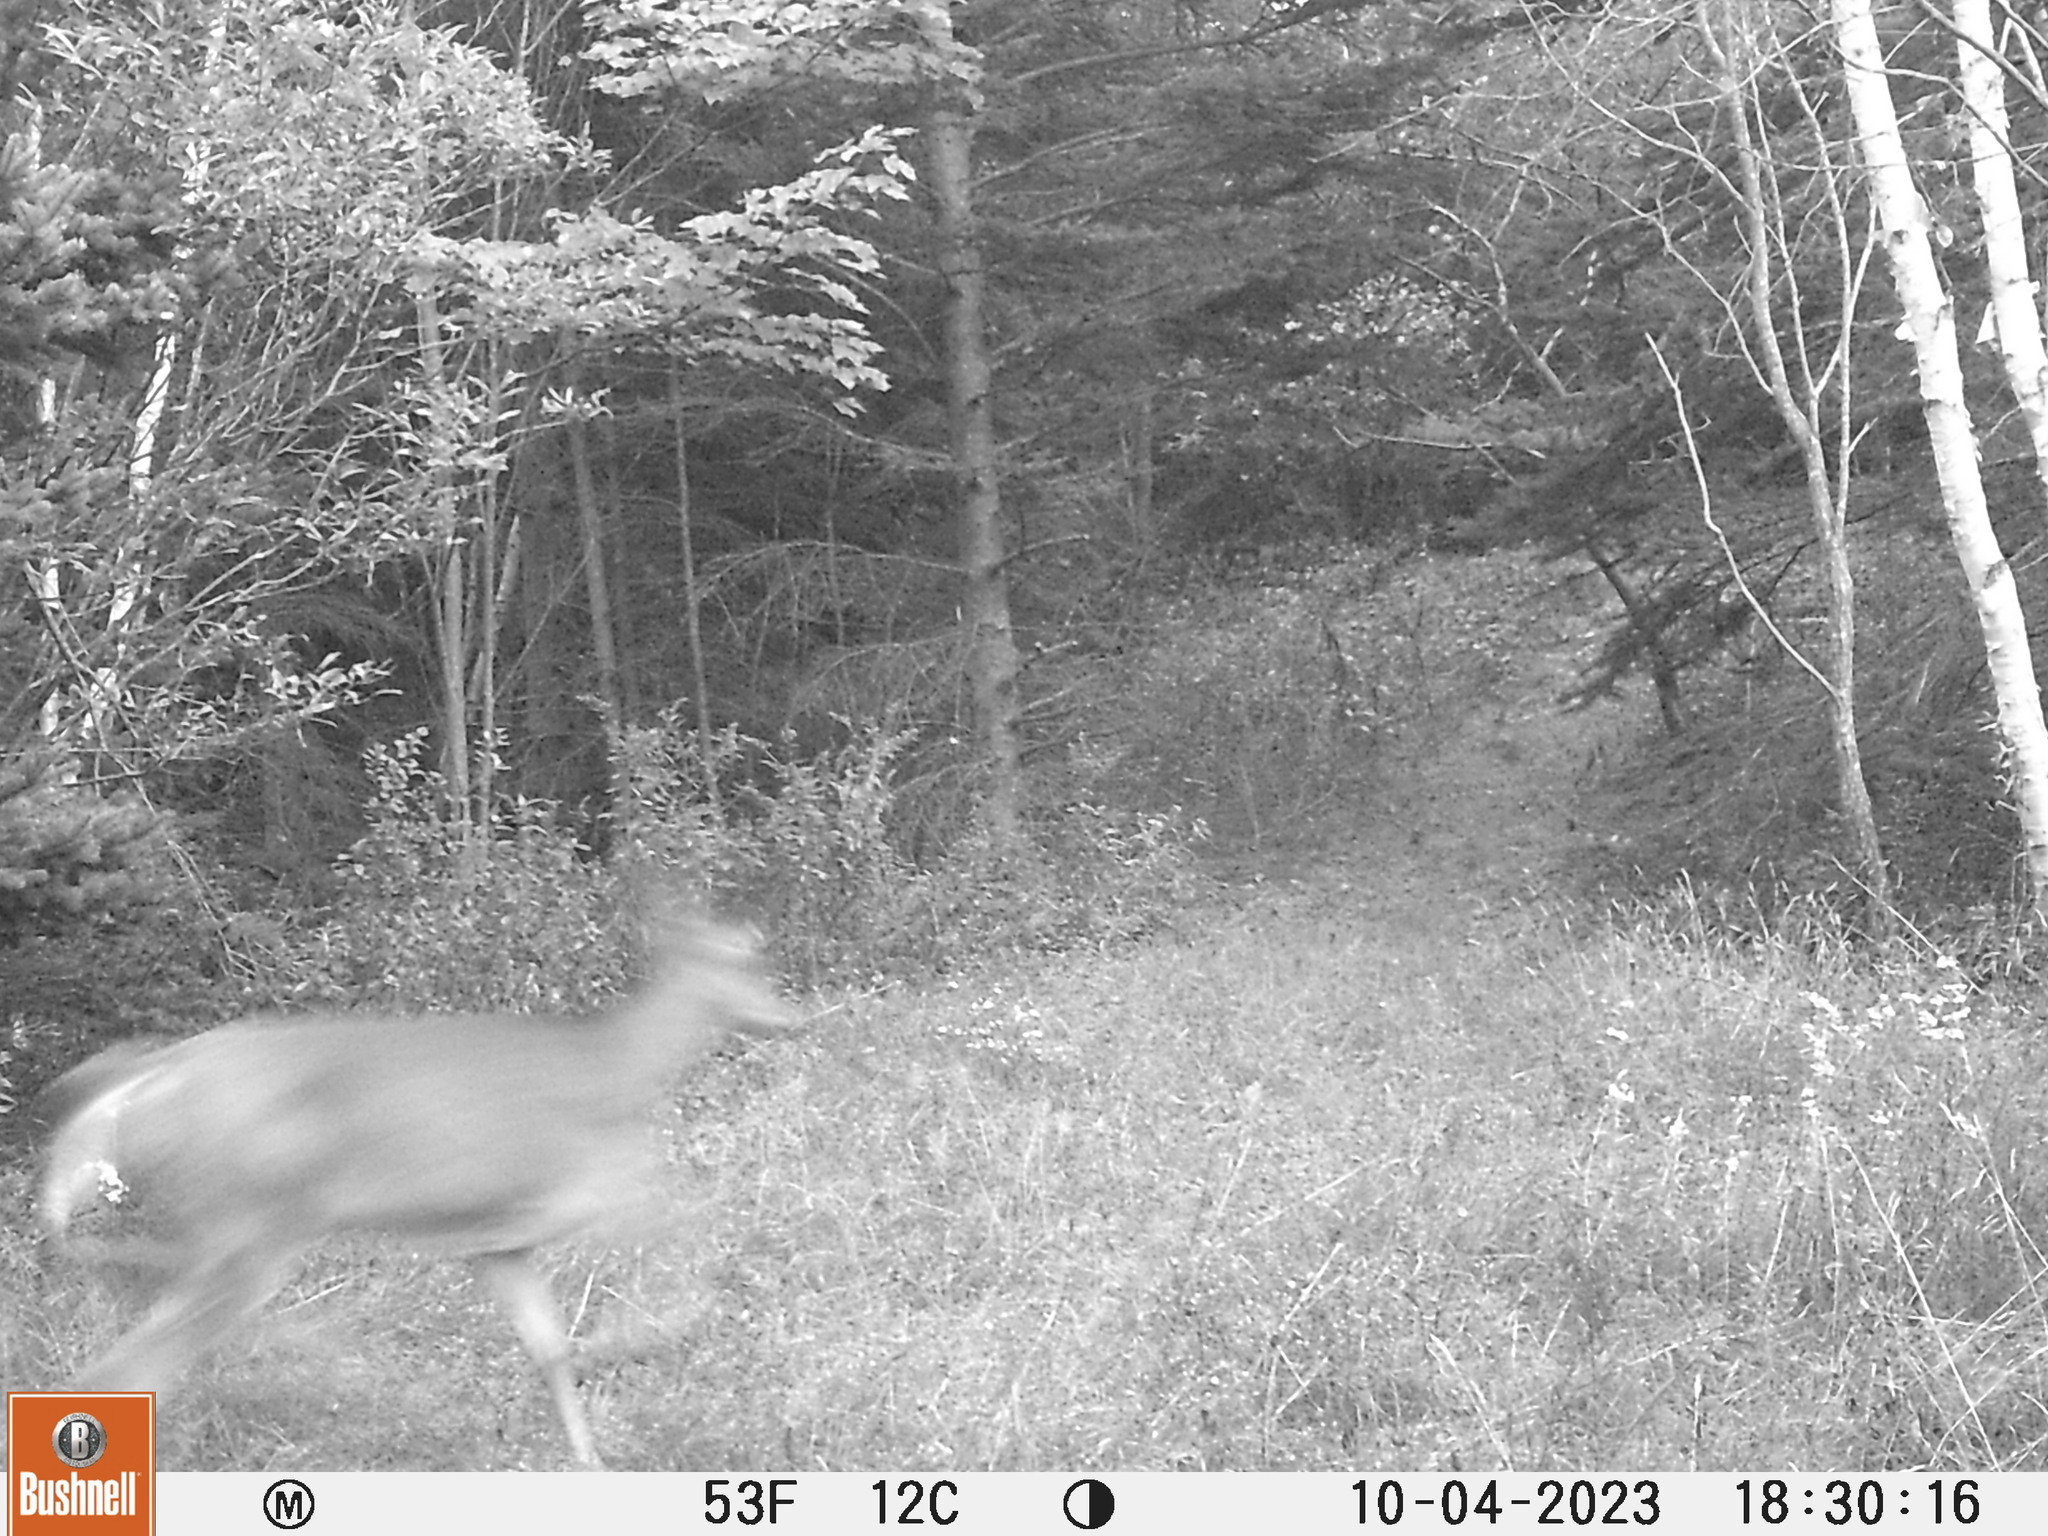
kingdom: Animalia
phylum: Chordata
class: Mammalia
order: Artiodactyla
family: Cervidae
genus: Odocoileus
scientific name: Odocoileus virginianus
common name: White-tailed deer
